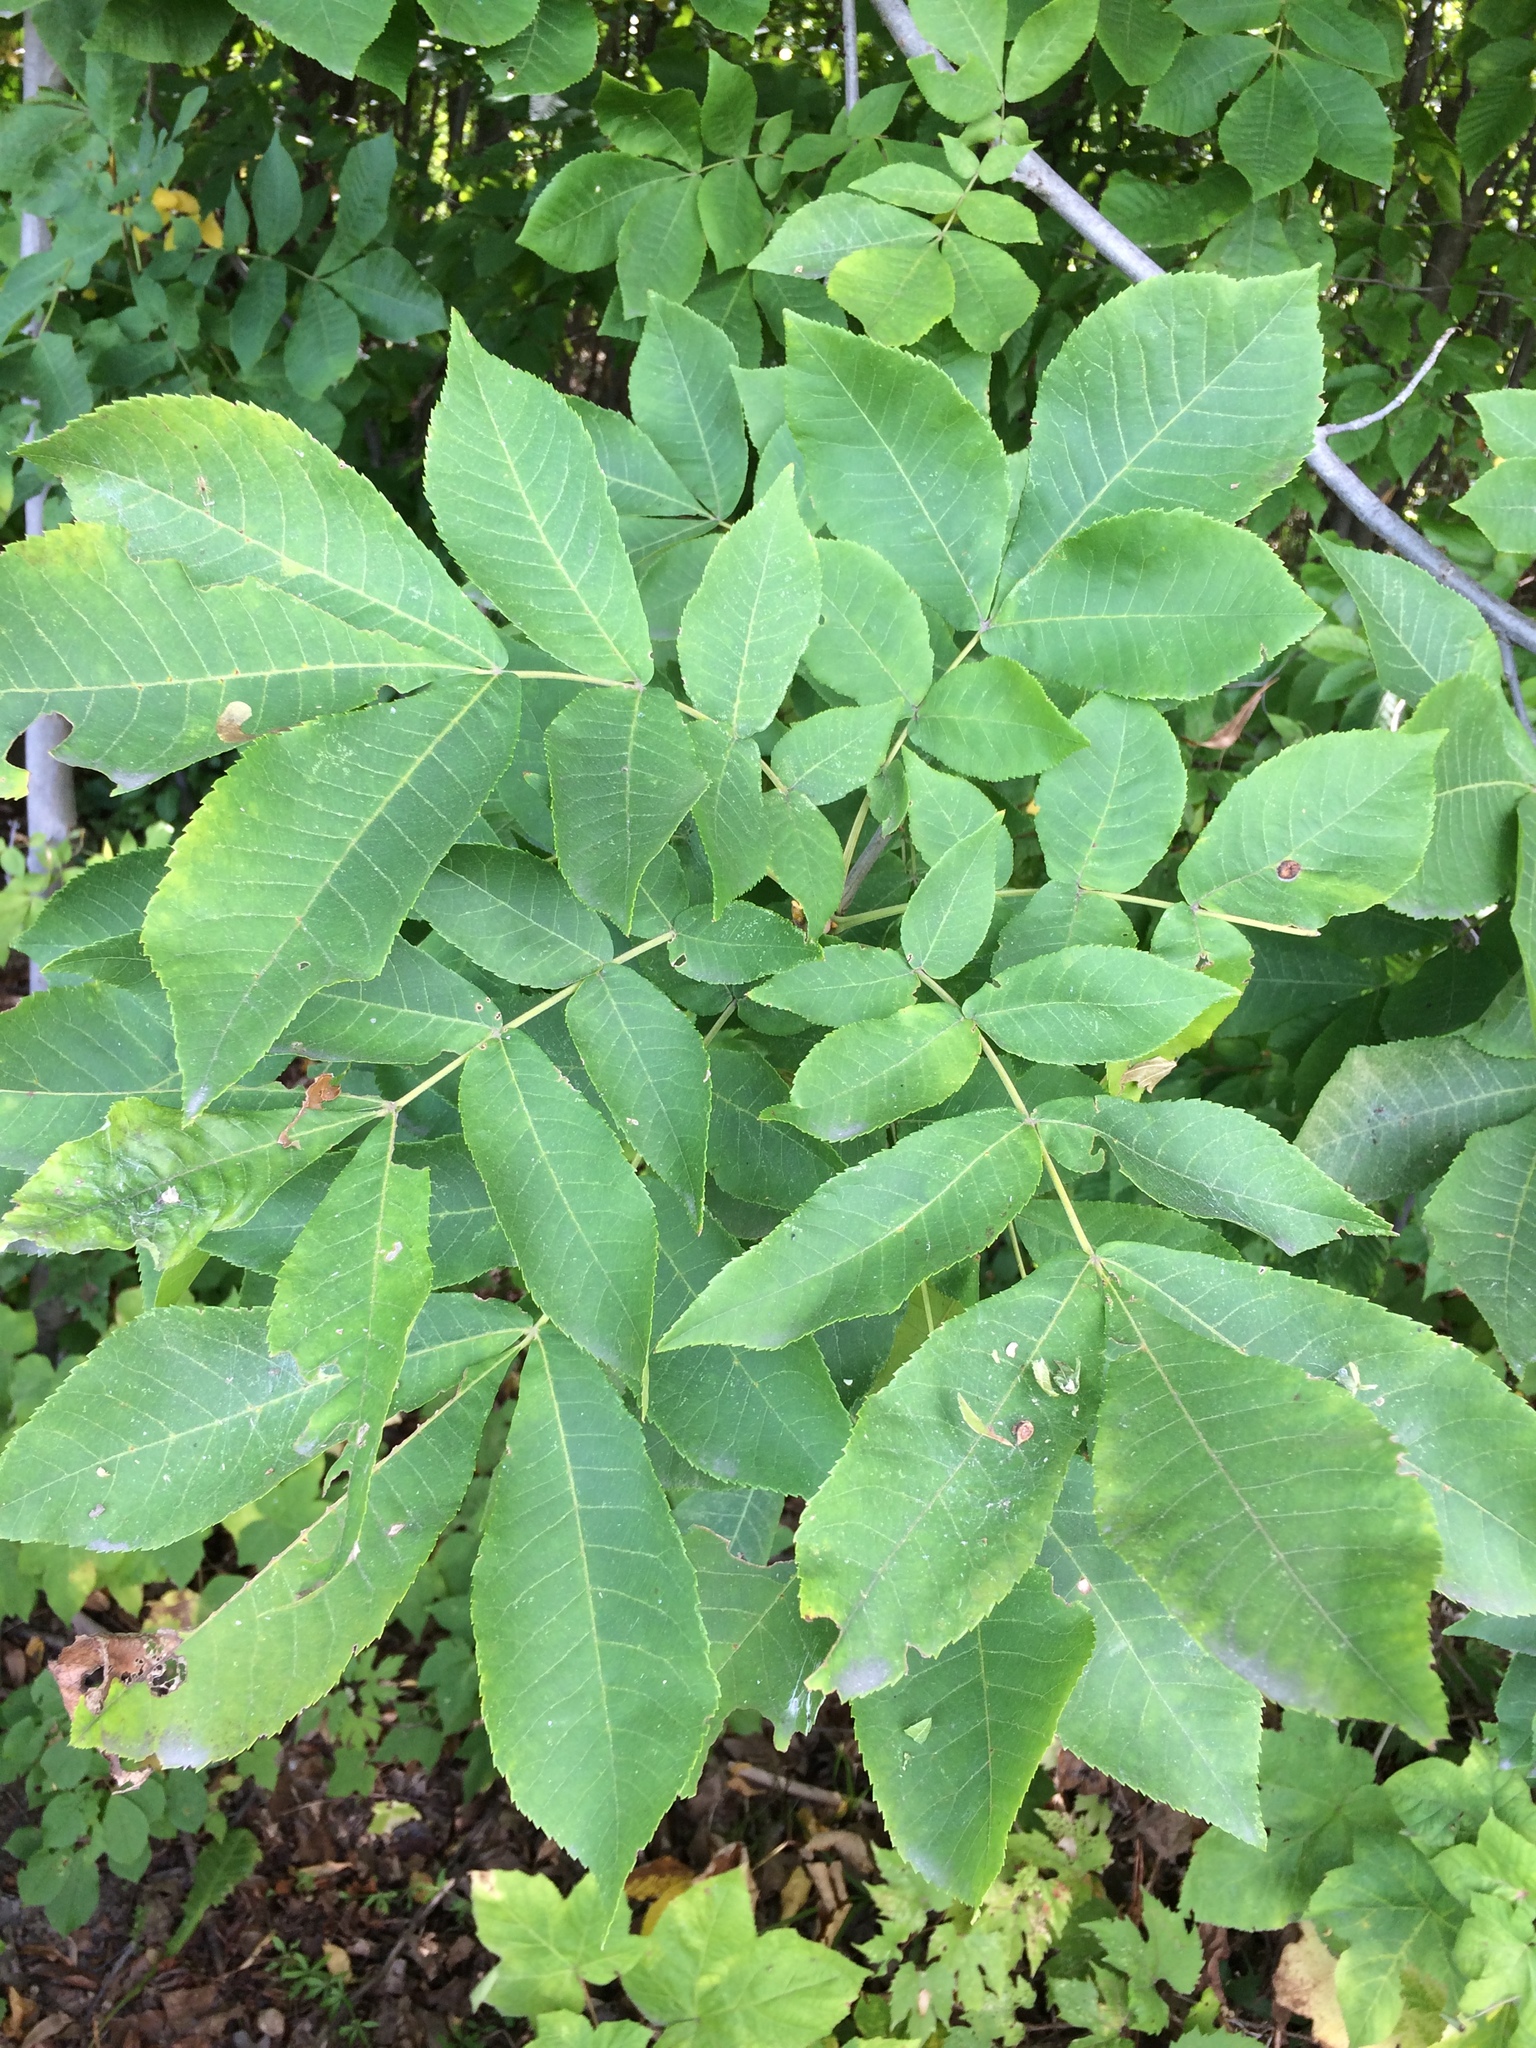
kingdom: Plantae
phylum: Tracheophyta
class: Magnoliopsida
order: Fagales
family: Juglandaceae
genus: Carya
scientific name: Carya cordiformis
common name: Bitternut hickory
